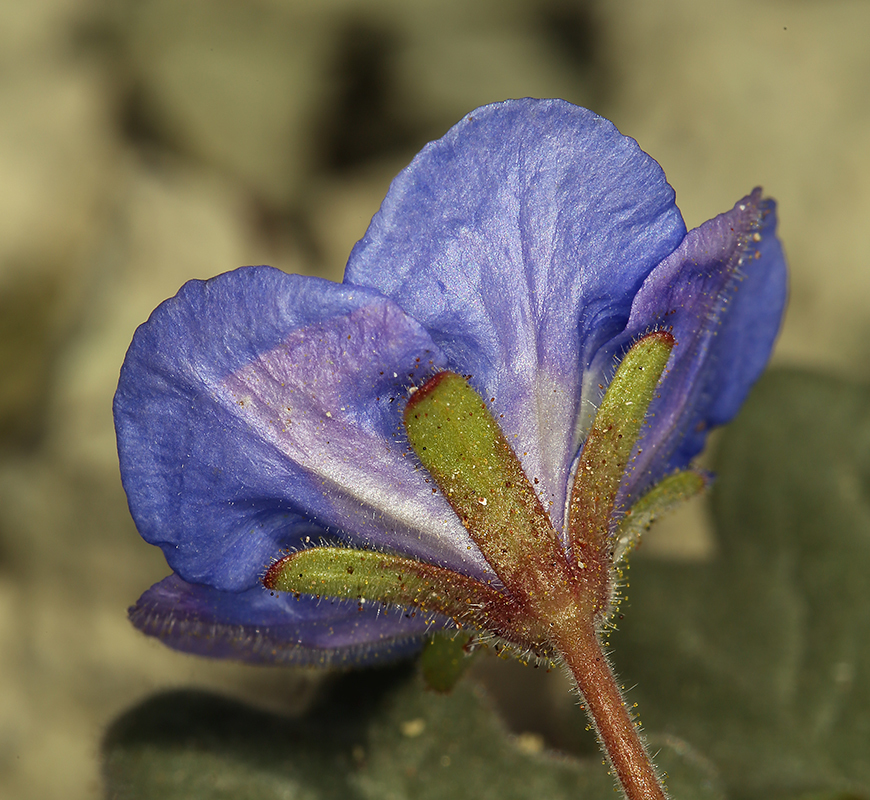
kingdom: Plantae
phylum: Tracheophyta
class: Magnoliopsida
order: Boraginales
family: Hydrophyllaceae
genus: Phacelia
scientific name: Phacelia nashiana
